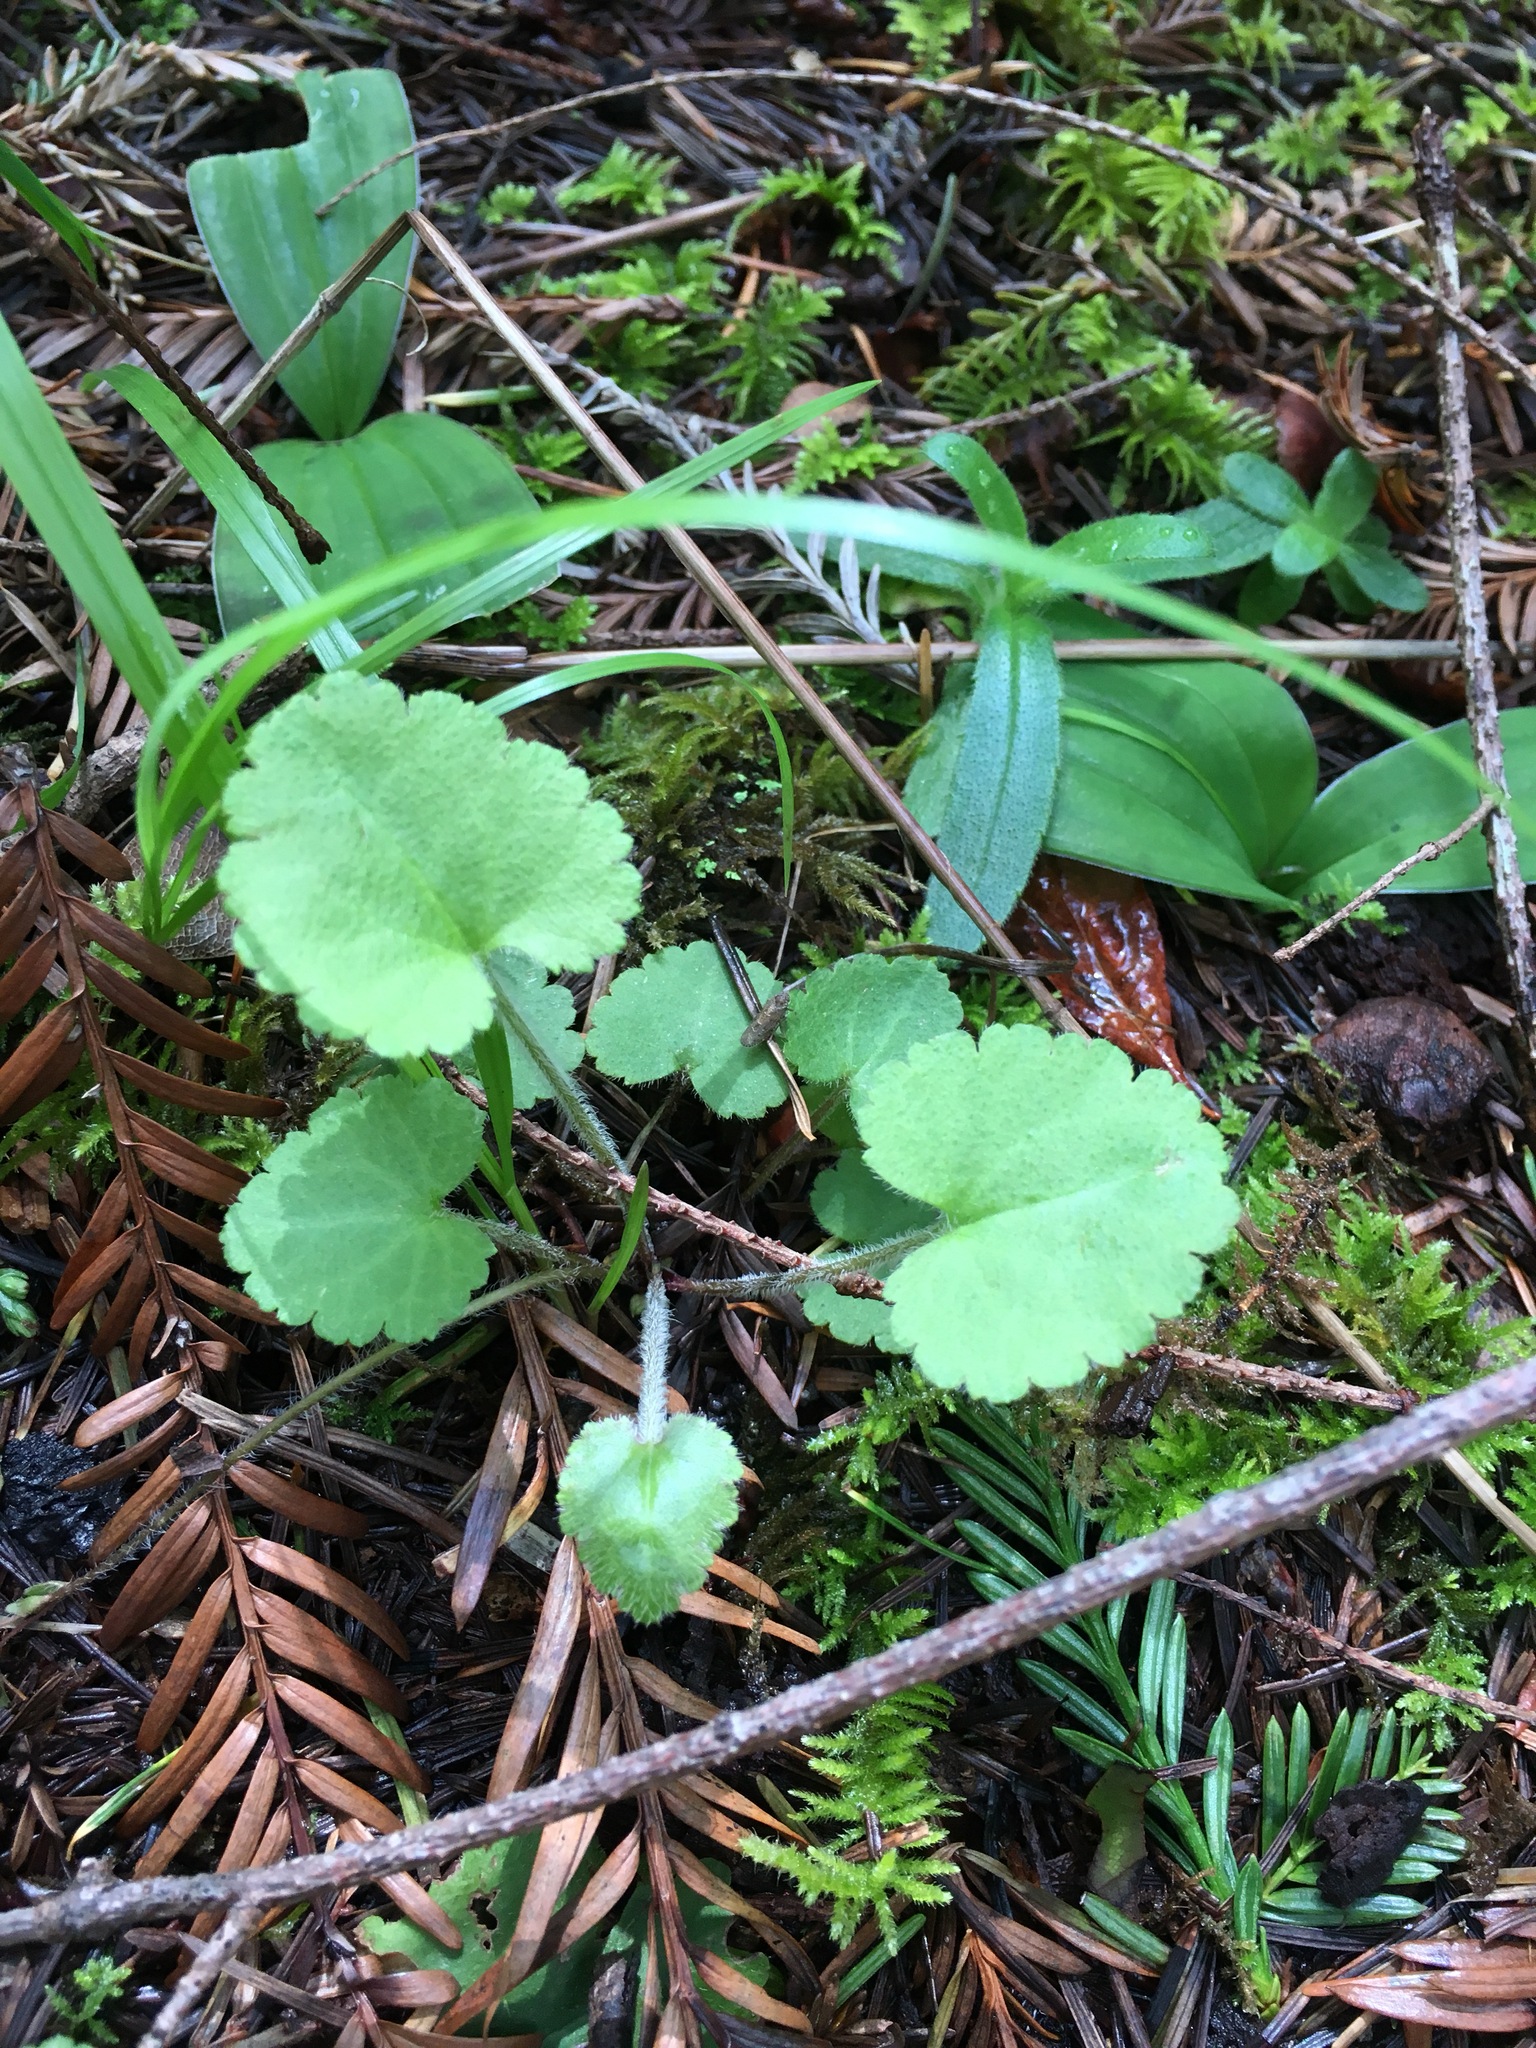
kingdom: Plantae
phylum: Tracheophyta
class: Magnoliopsida
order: Lamiales
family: Plantaginaceae
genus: Synthyris
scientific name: Synthyris reniformis
